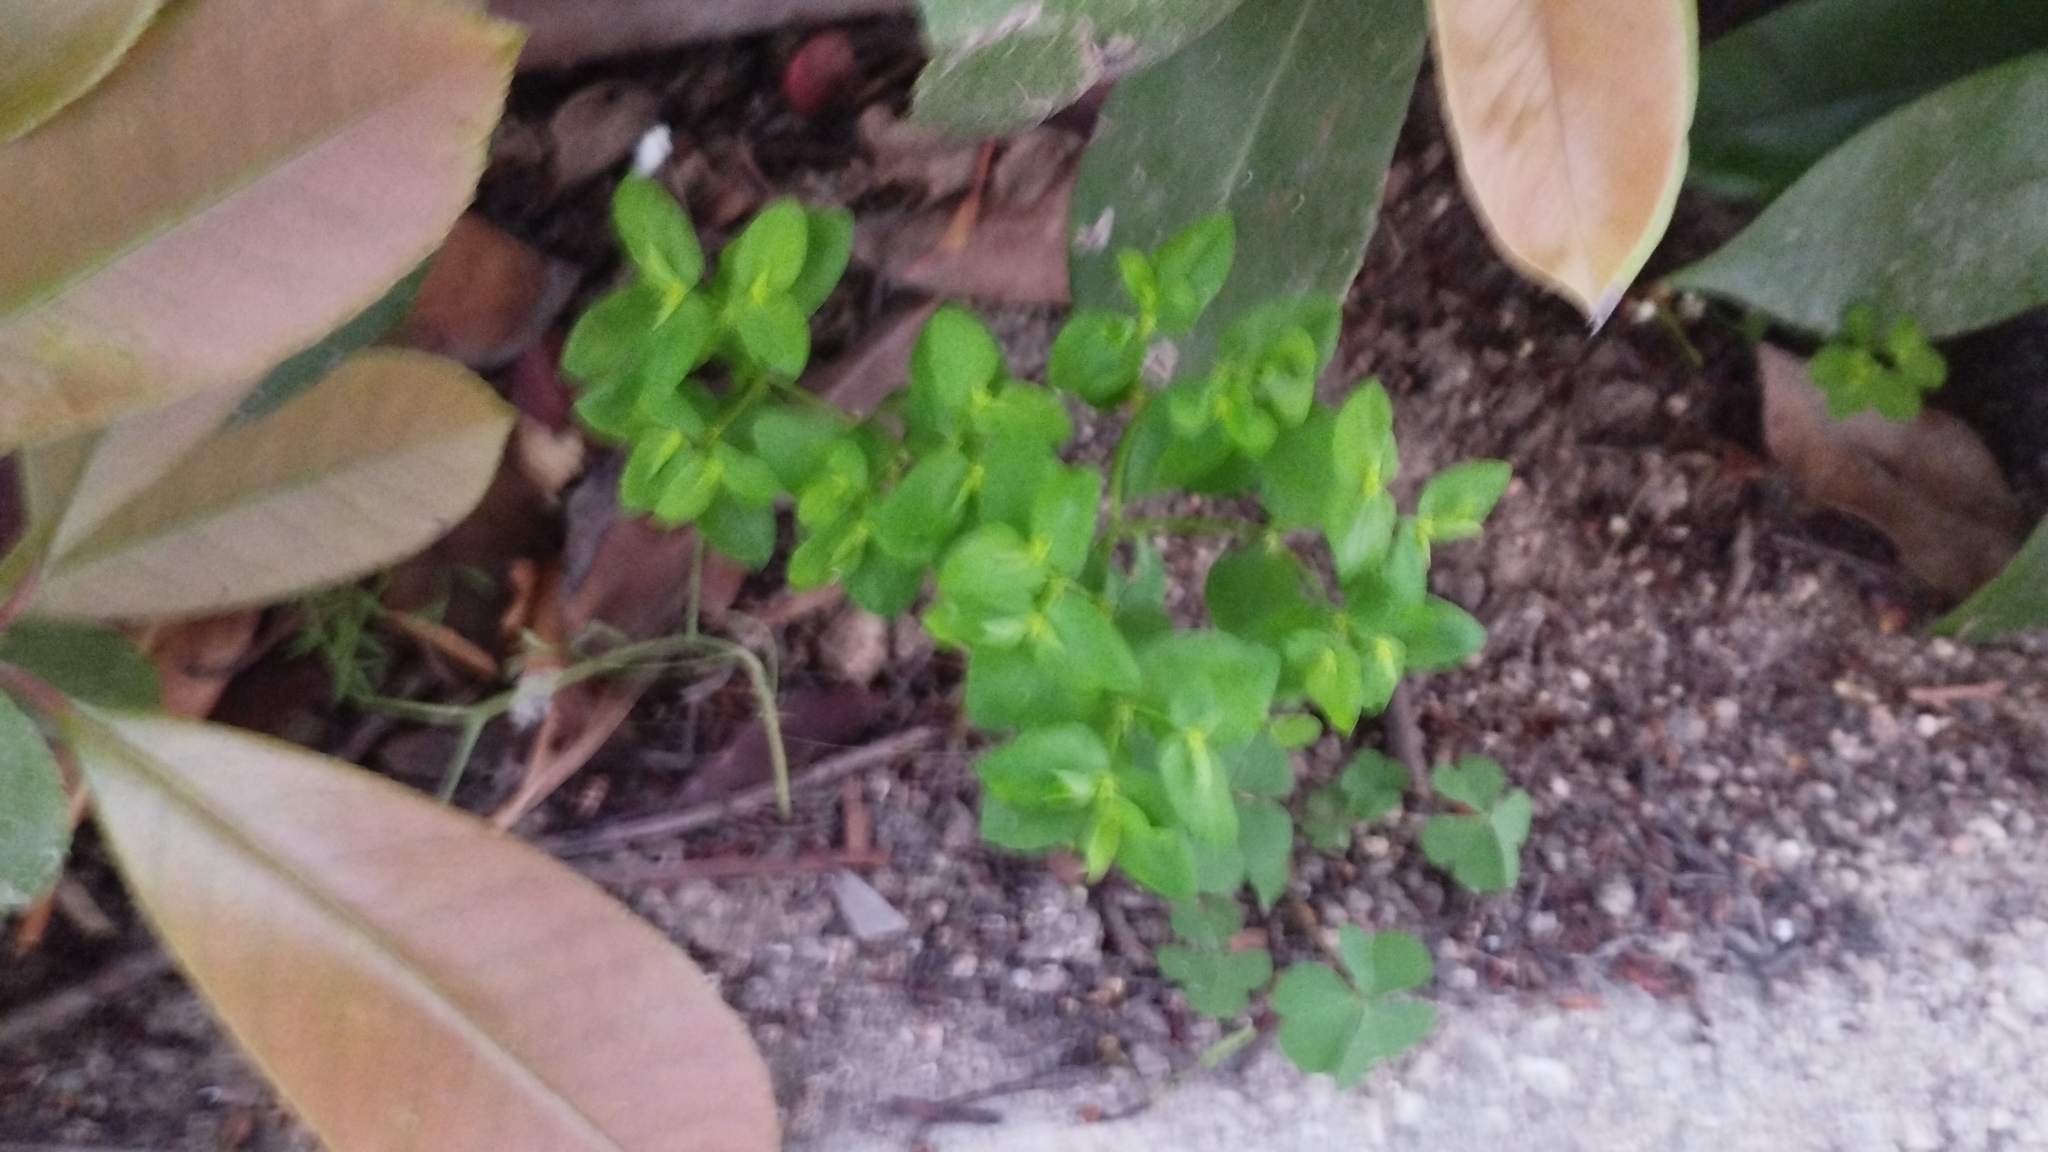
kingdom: Plantae
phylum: Tracheophyta
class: Magnoliopsida
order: Malpighiales
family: Euphorbiaceae
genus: Euphorbia
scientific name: Euphorbia peplus
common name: Petty spurge
